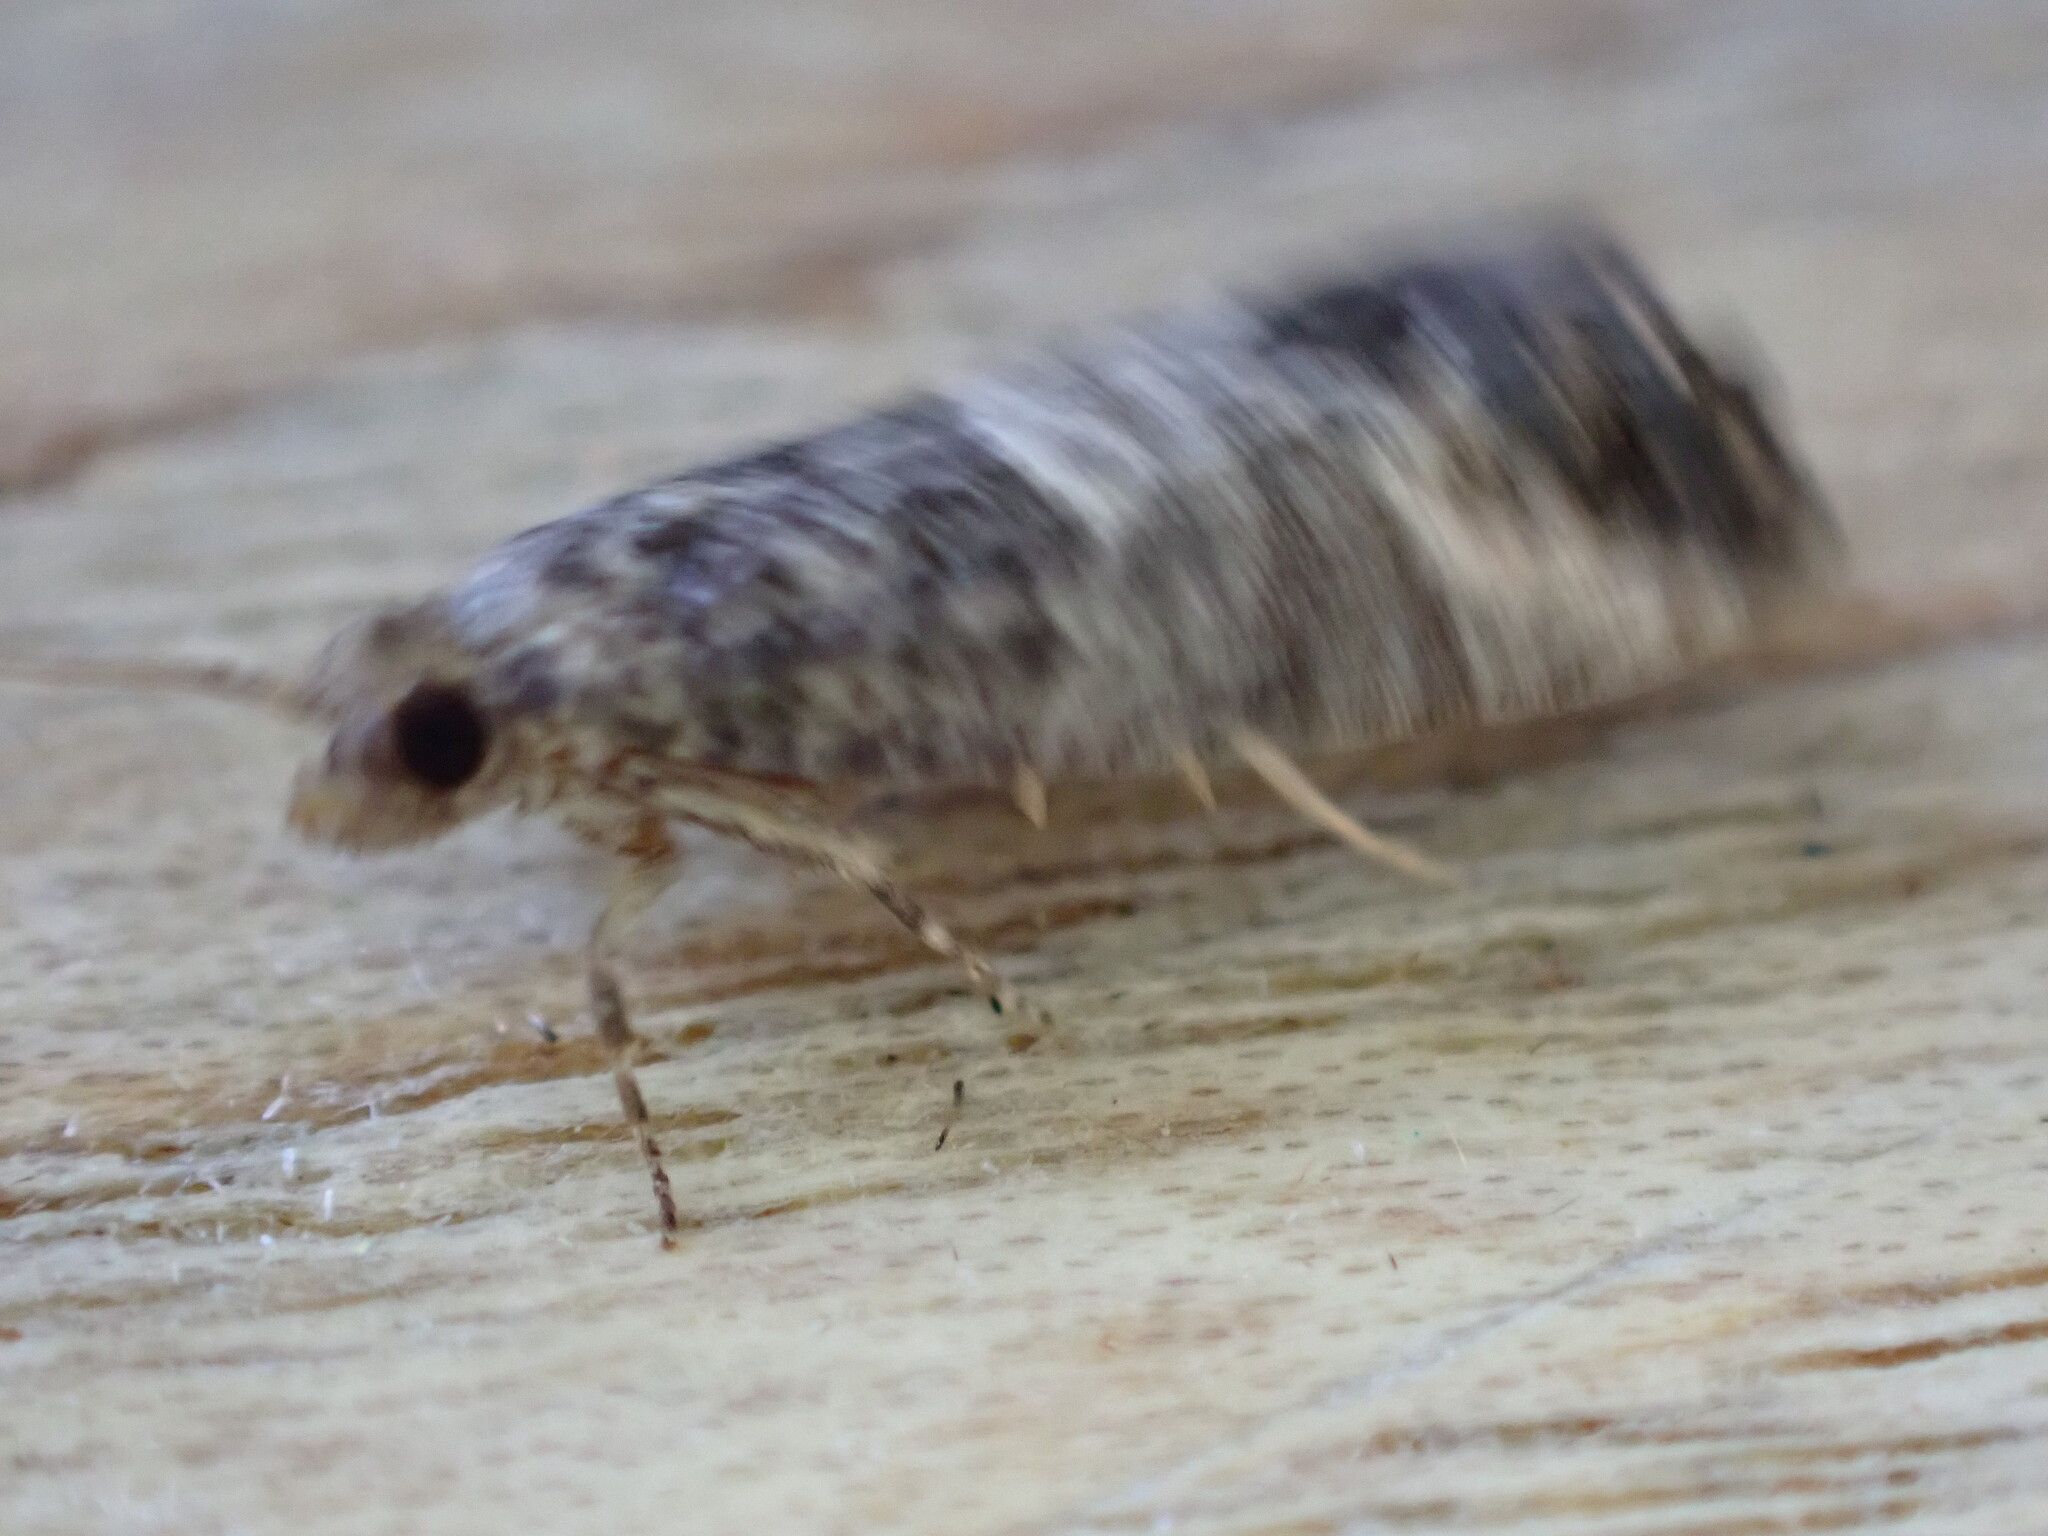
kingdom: Animalia
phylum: Arthropoda
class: Insecta
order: Lepidoptera
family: Tortricidae
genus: Pammene
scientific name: Pammene fasciana
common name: Acorn piercer
